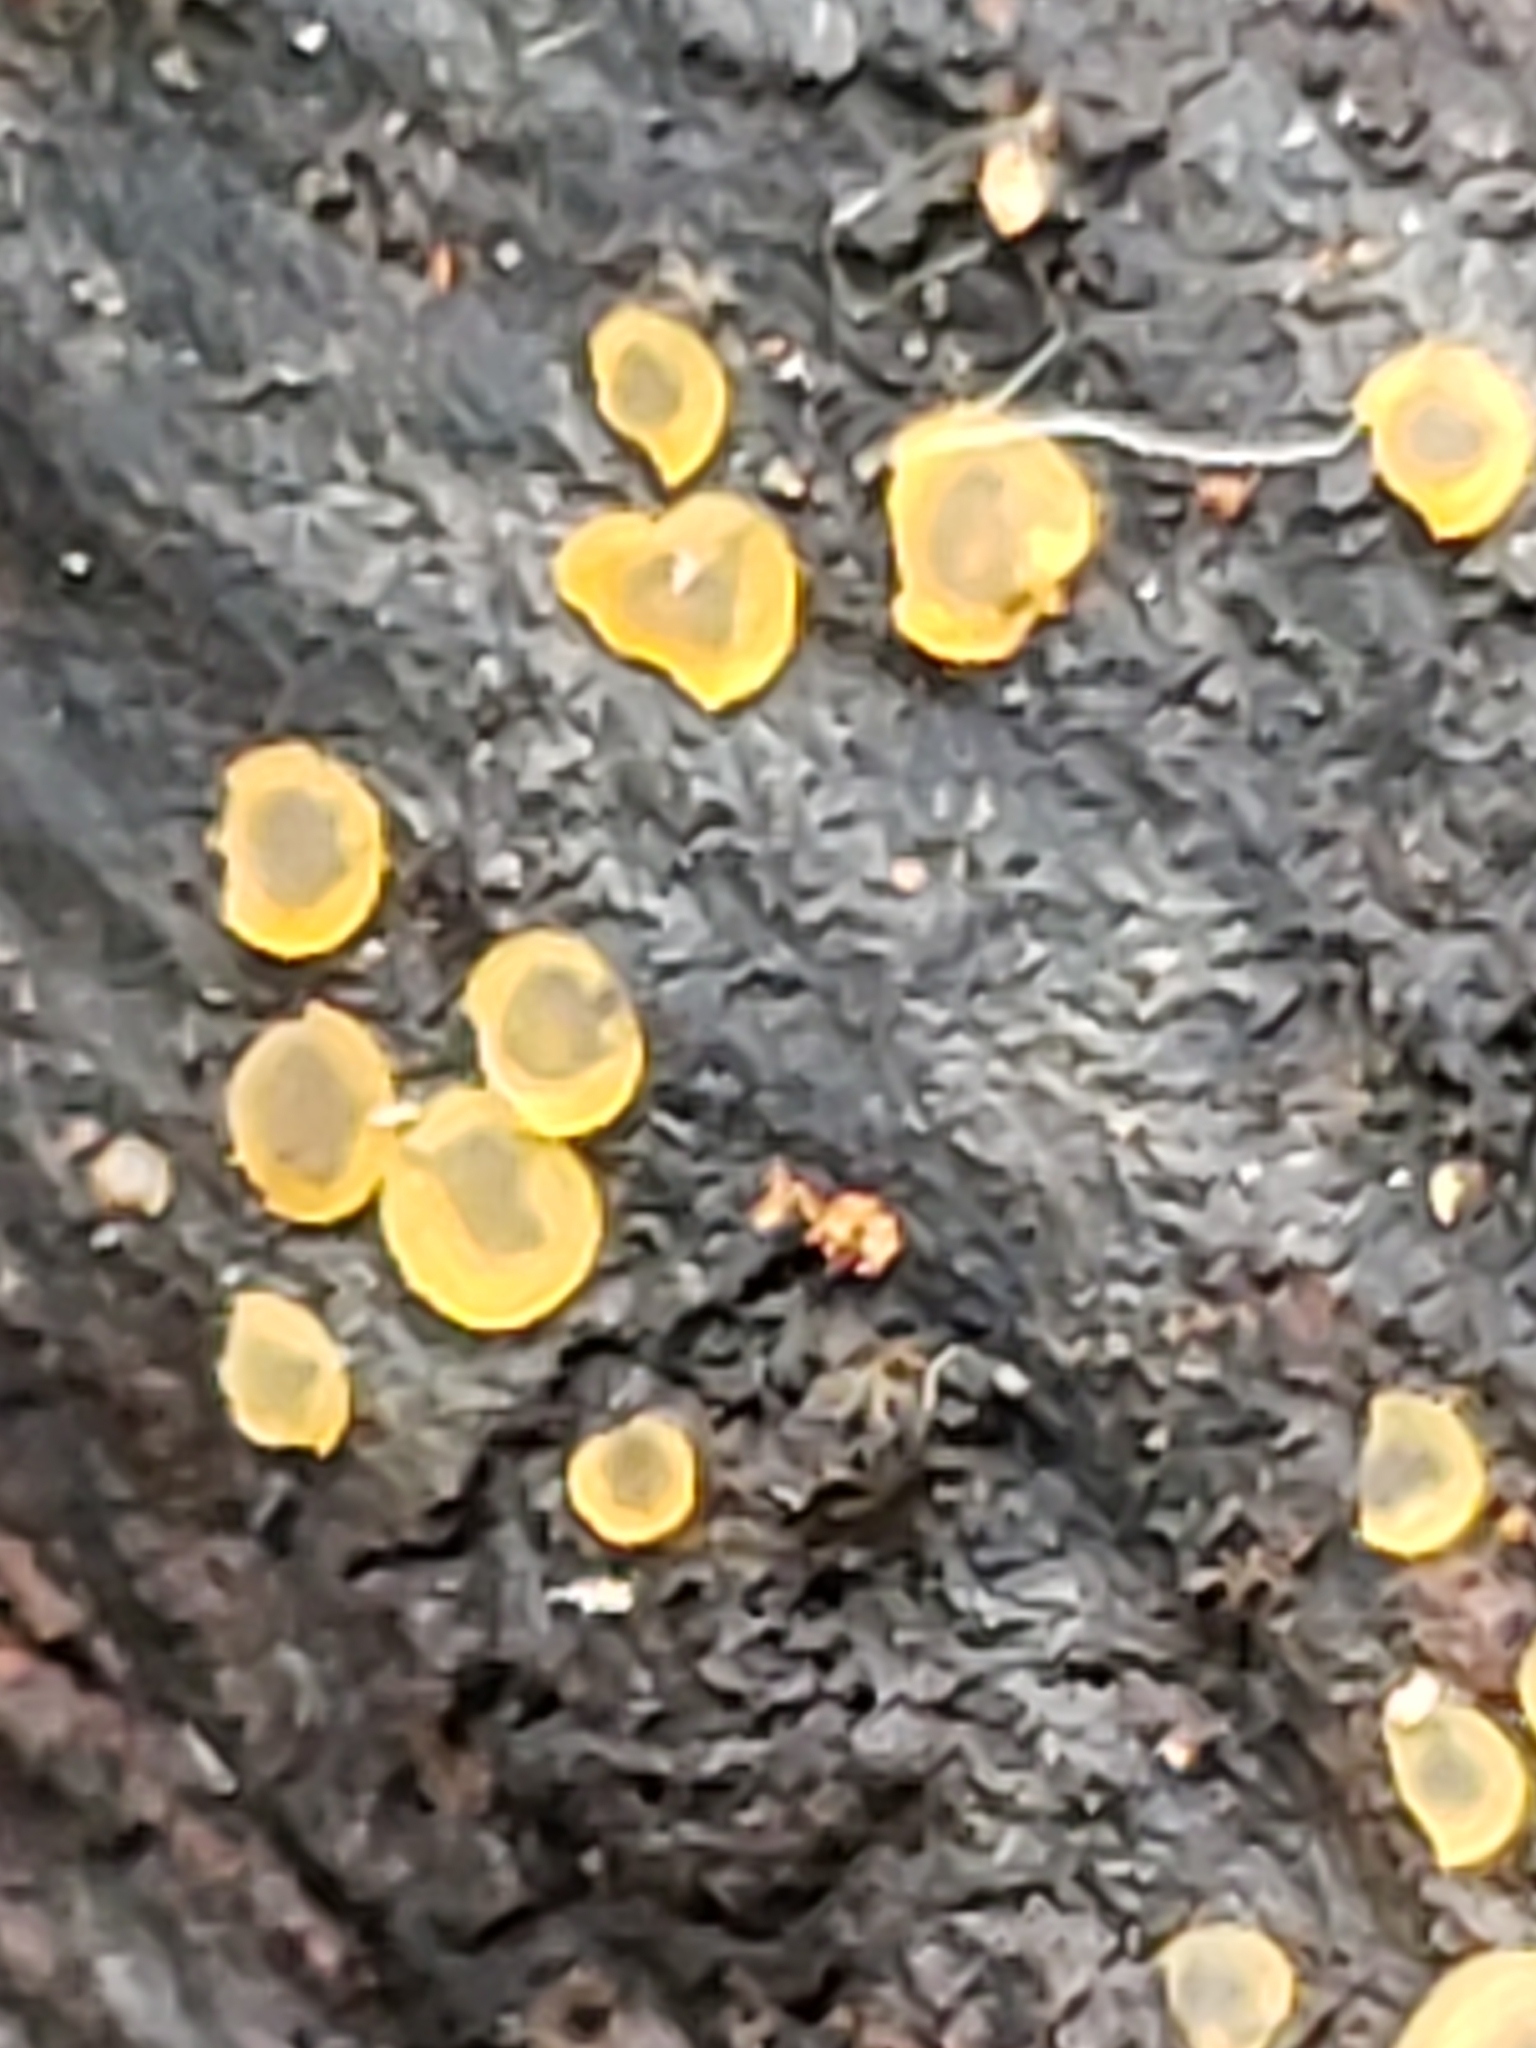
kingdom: Fungi
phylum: Ascomycota
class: Orbiliomycetes
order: Orbiliales
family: Orbiliaceae
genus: Orbilia
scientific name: Orbilia
